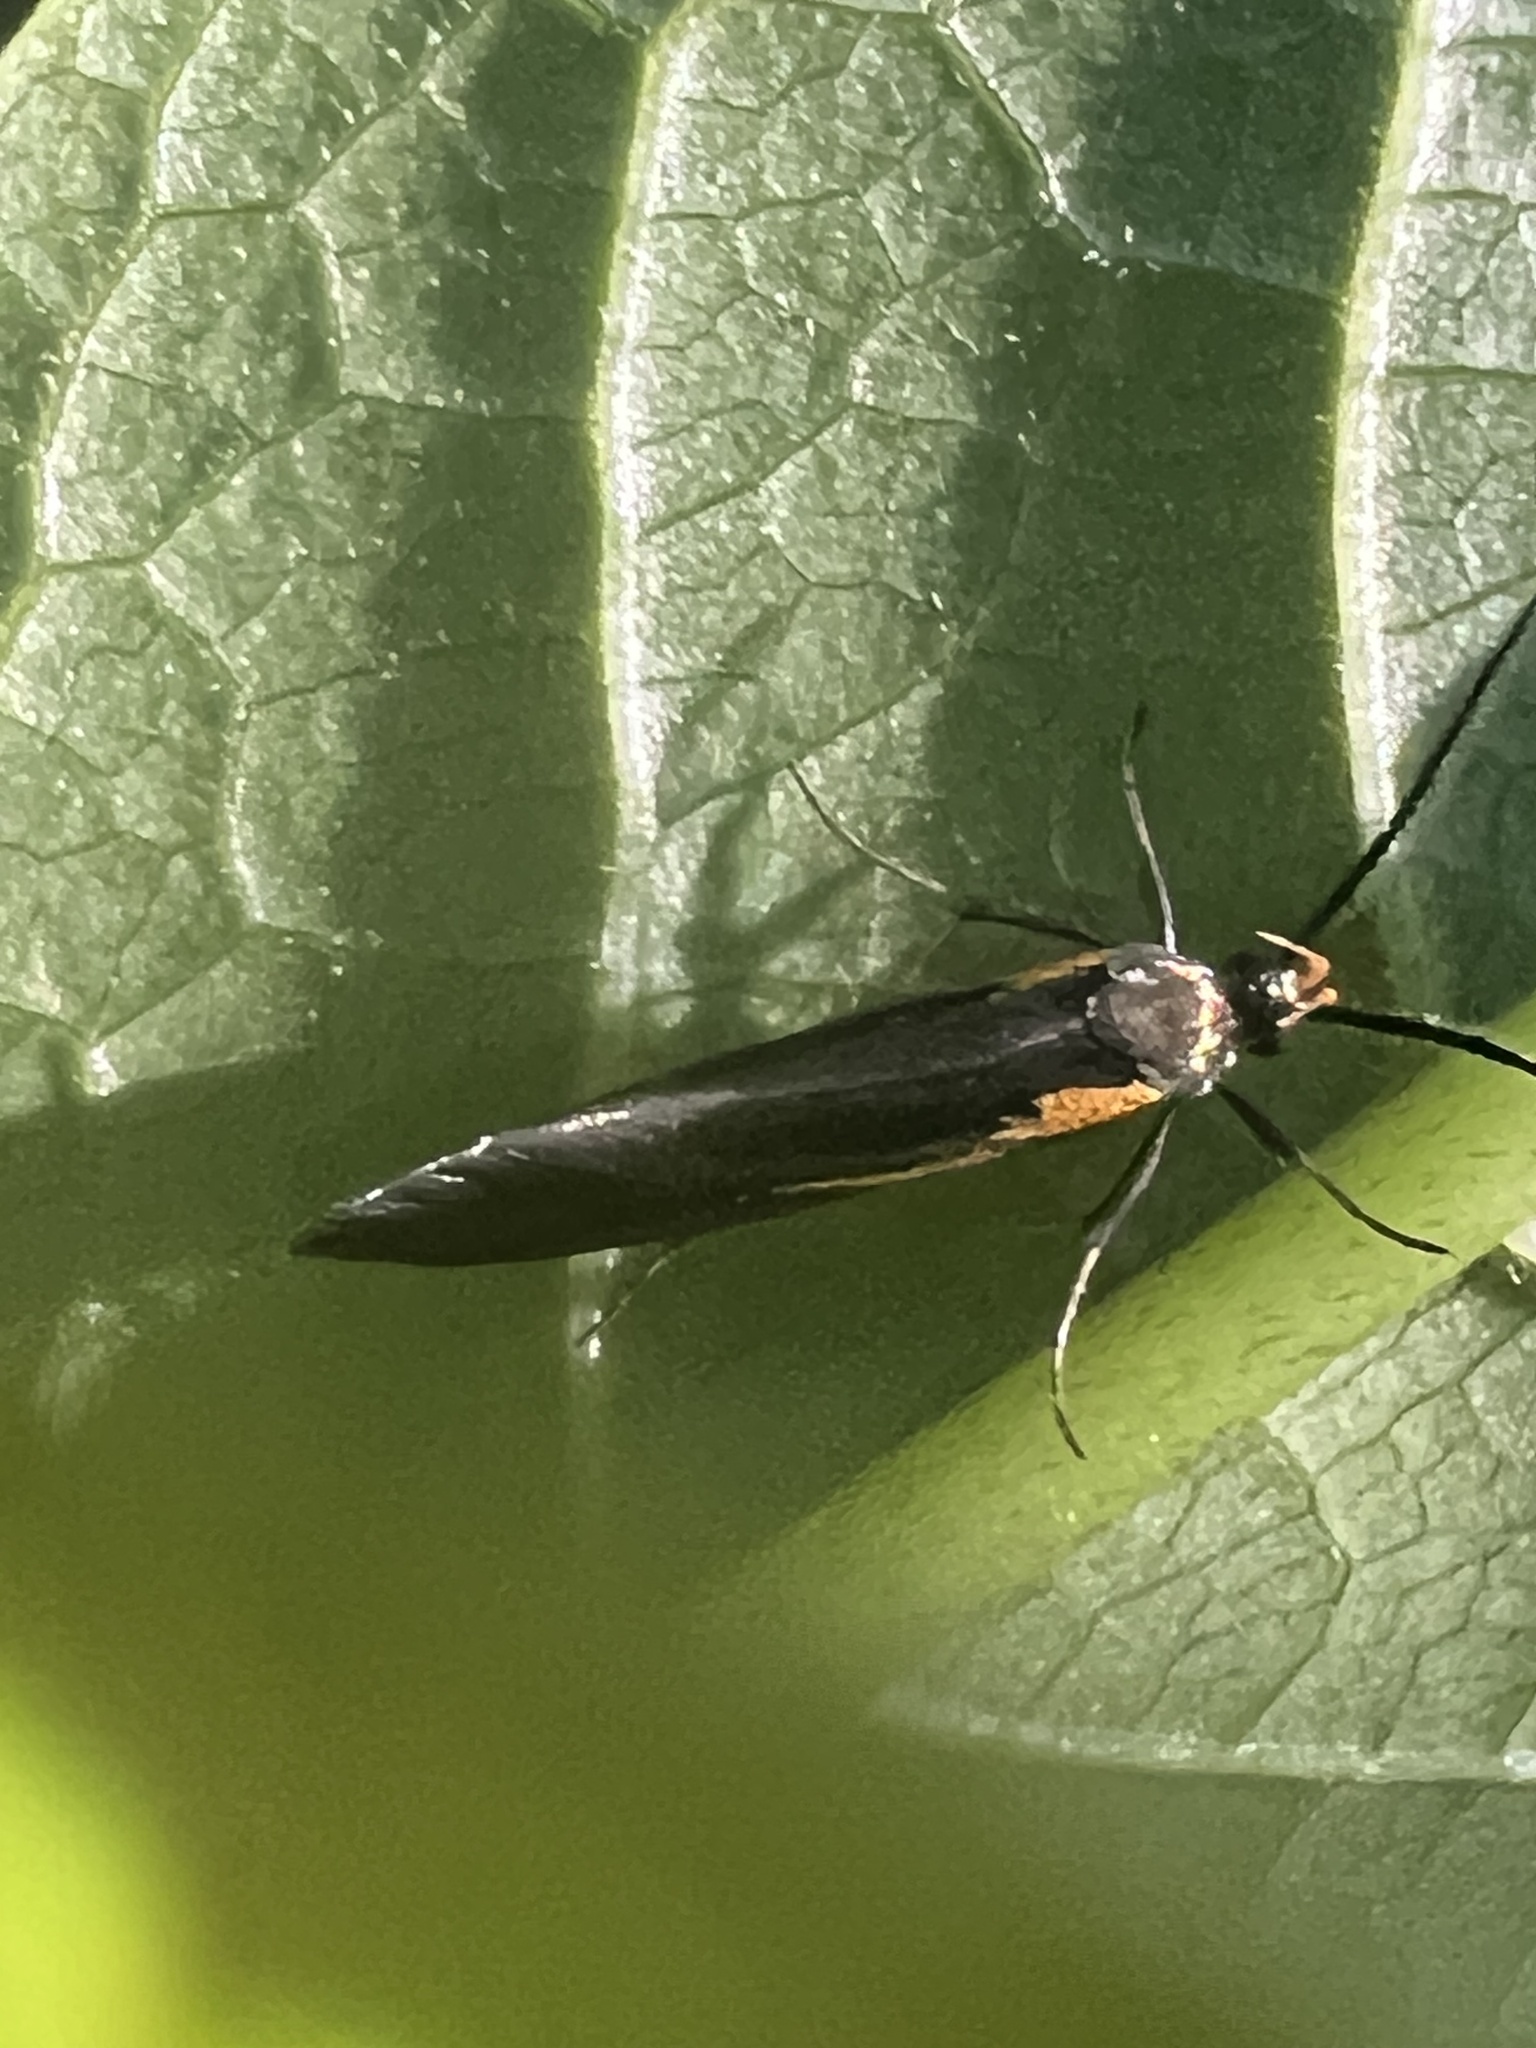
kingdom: Animalia
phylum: Arthropoda
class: Insecta
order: Lepidoptera
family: Oecophoridae
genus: Mathildana
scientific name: Mathildana newmanella
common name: Newman's mathildana moth
